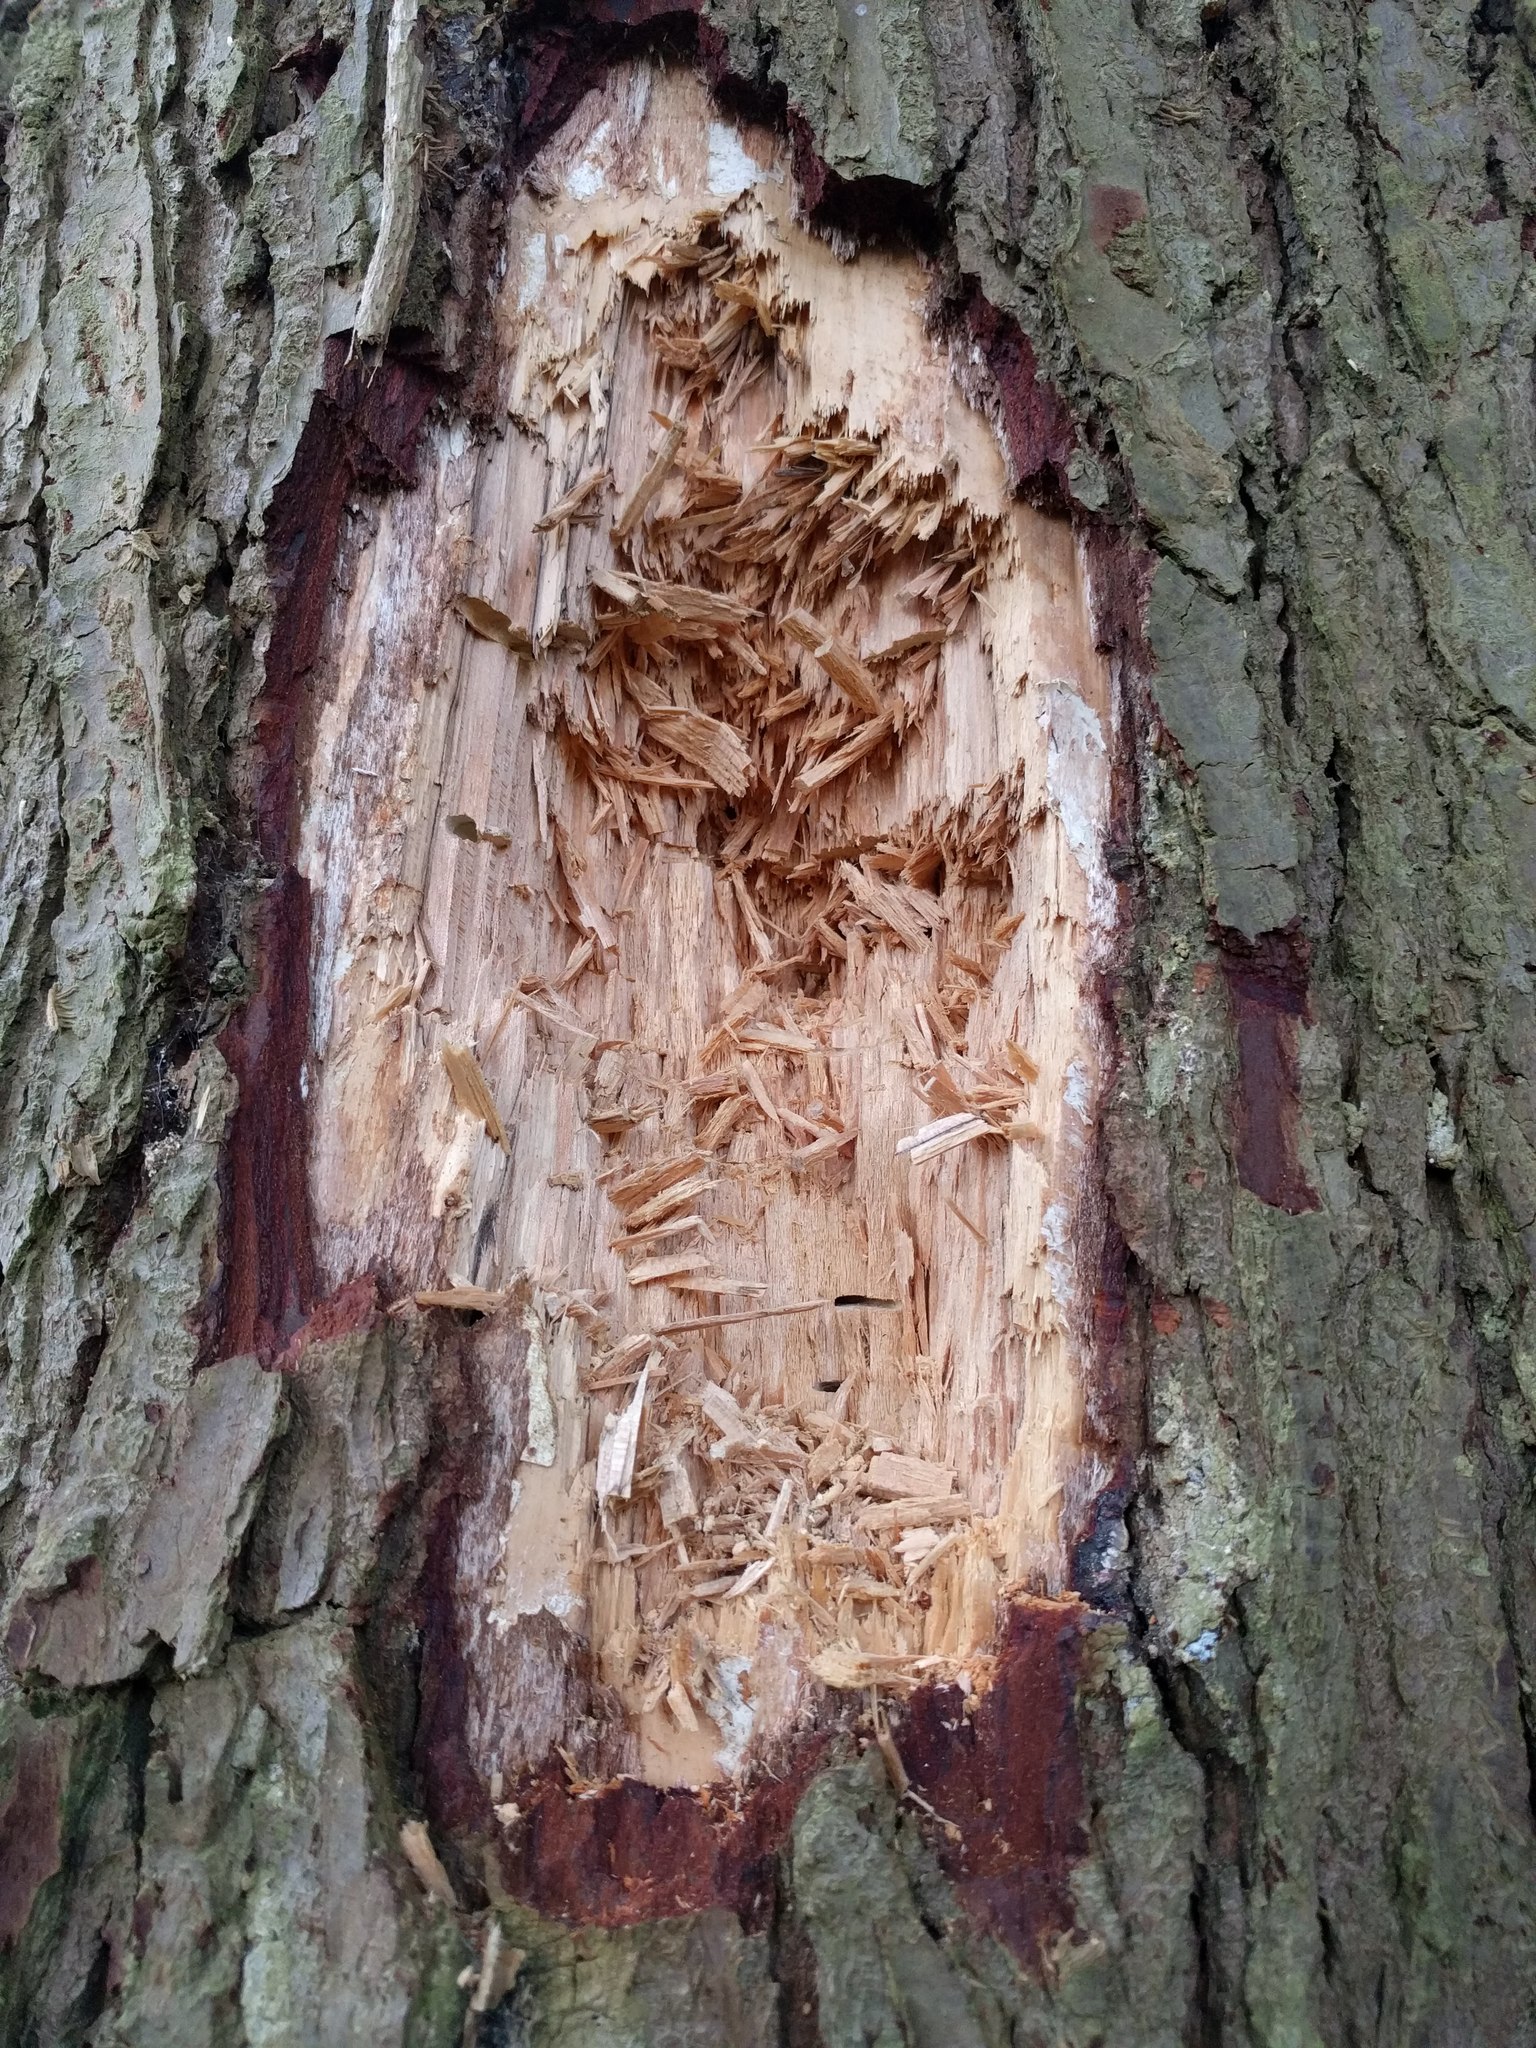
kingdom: Animalia
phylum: Chordata
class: Aves
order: Piciformes
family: Picidae
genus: Dryocopus
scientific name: Dryocopus pileatus
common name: Pileated woodpecker
